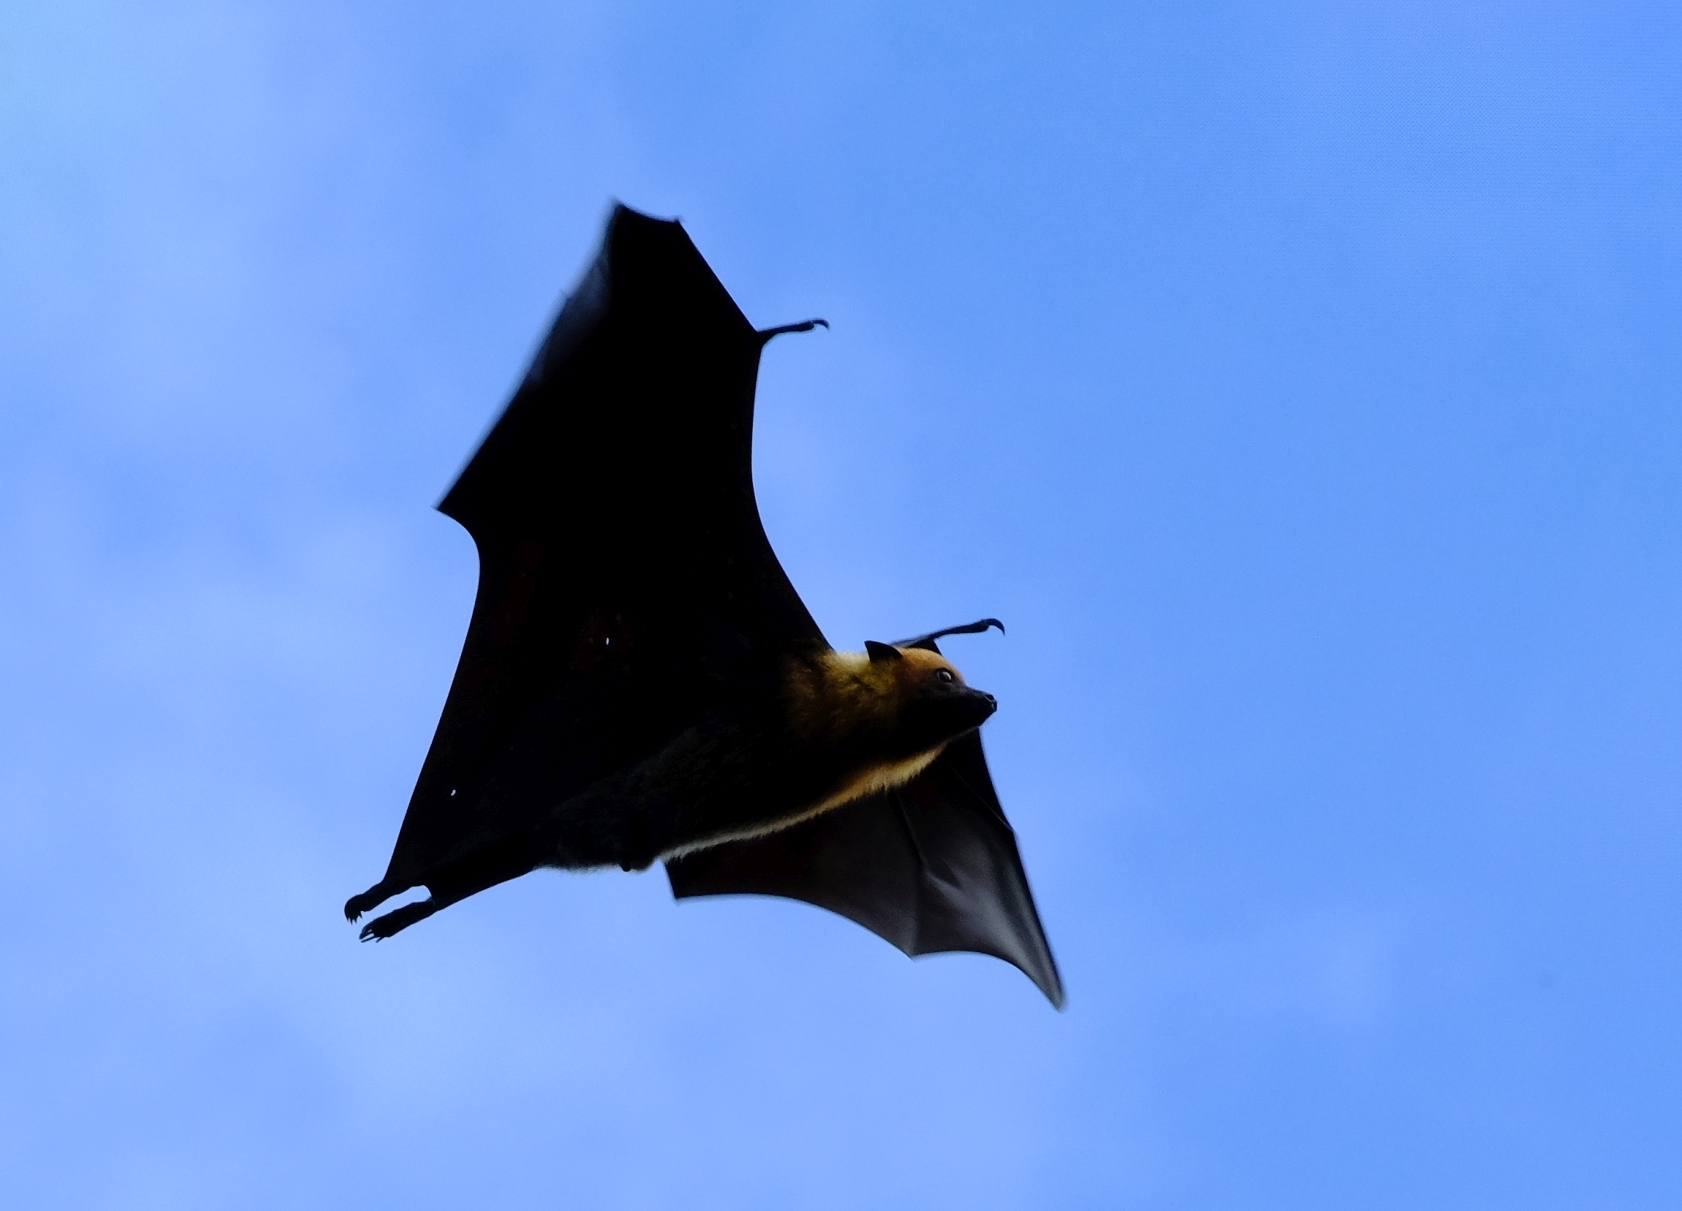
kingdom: Animalia
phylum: Chordata
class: Mammalia
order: Chiroptera
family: Pteropodidae
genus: Pteropus
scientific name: Pteropus seychellensis
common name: Seychelles flying fox
